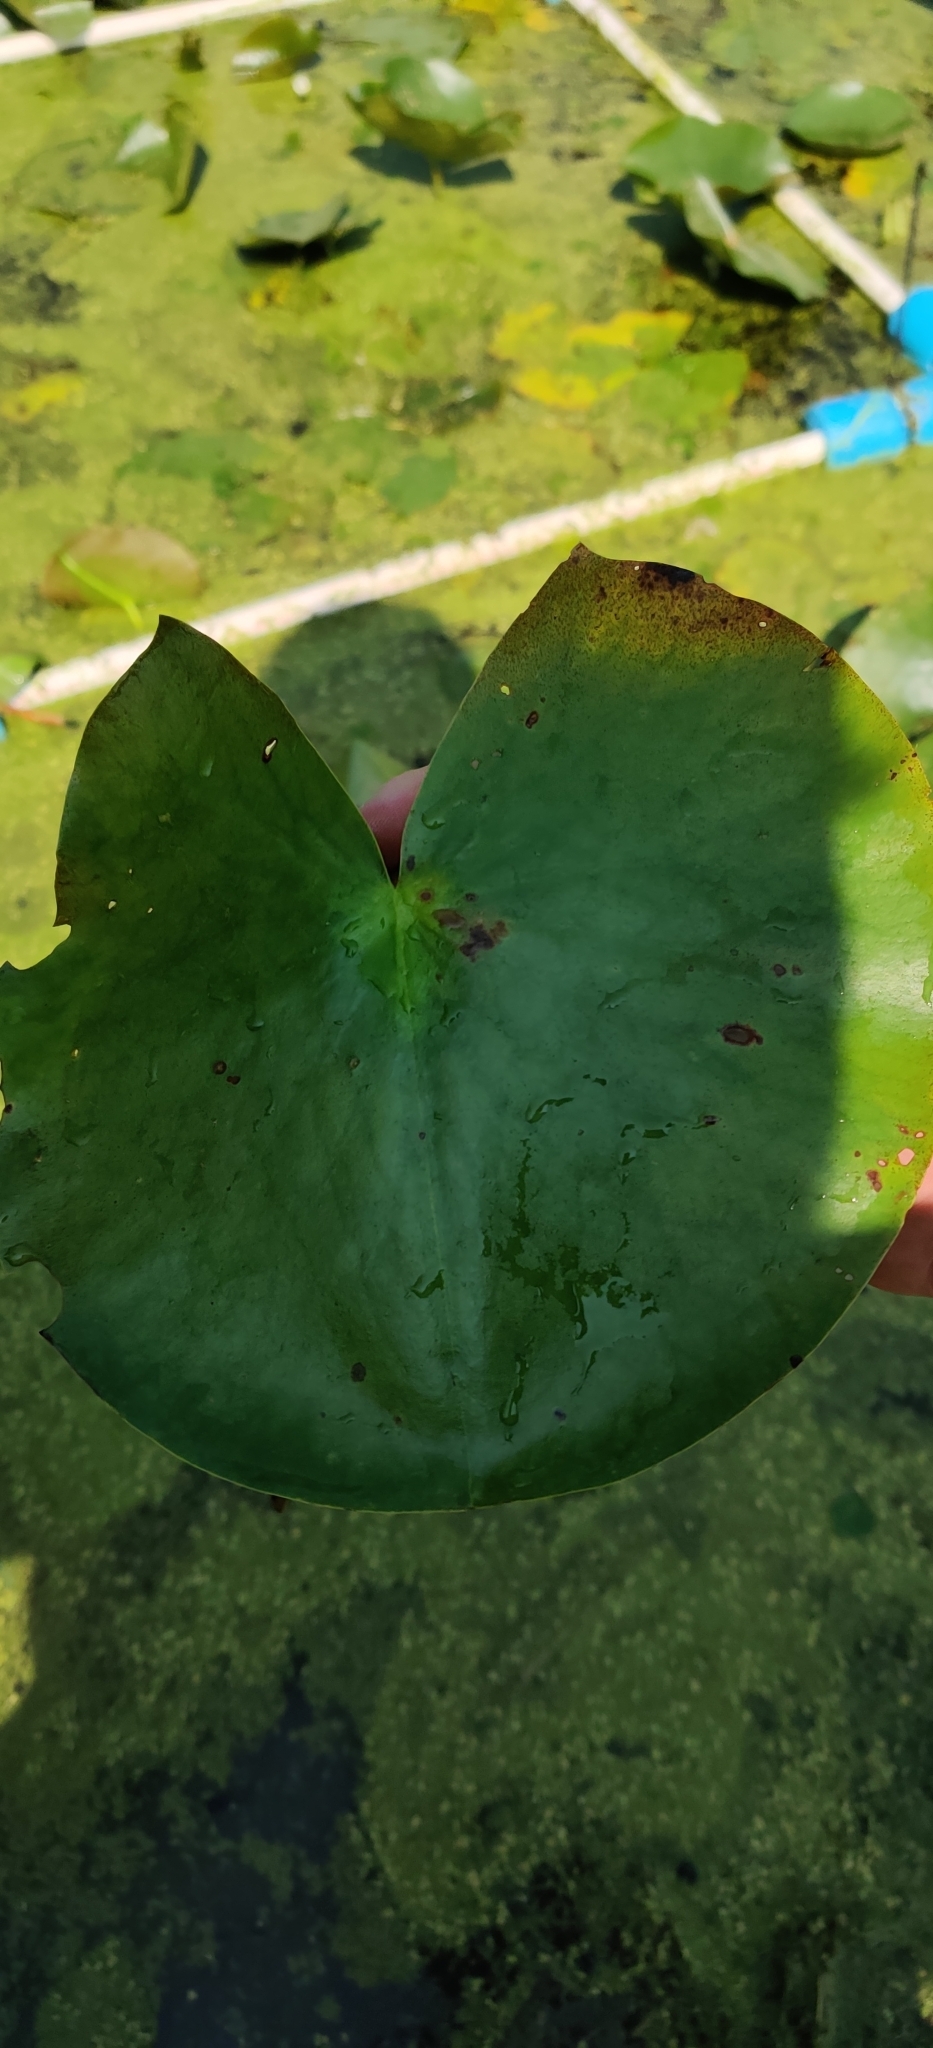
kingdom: Plantae
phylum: Tracheophyta
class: Magnoliopsida
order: Nymphaeales
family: Nymphaeaceae
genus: Nymphaea
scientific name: Nymphaea odorata
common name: Fragrant water-lily
